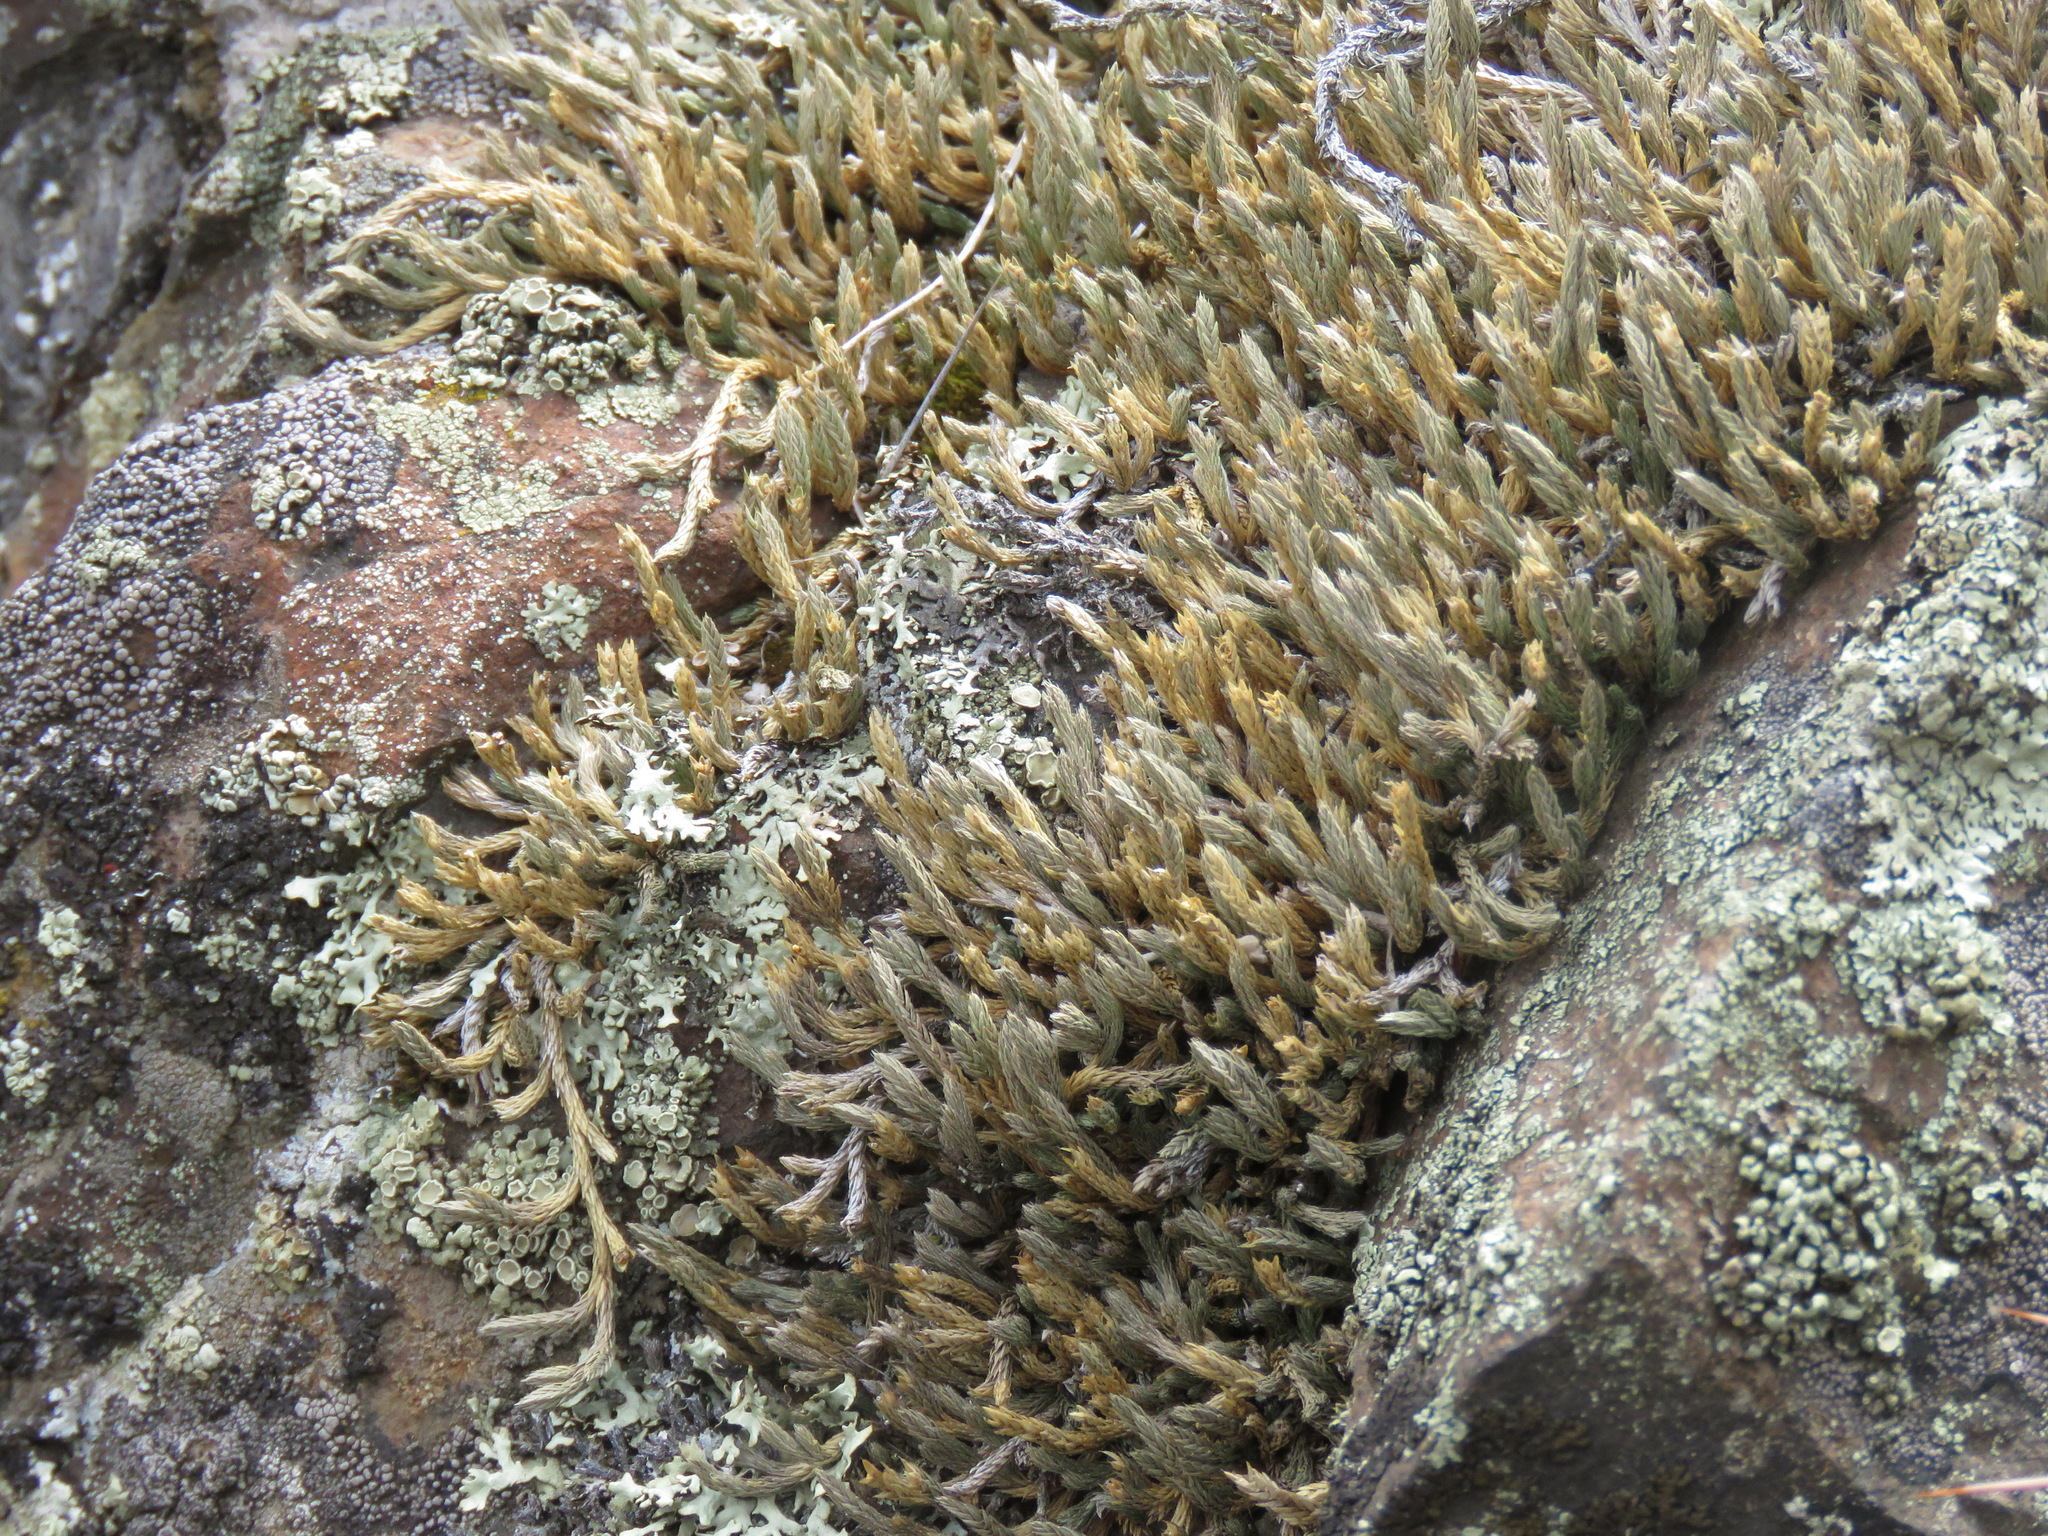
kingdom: Plantae
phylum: Tracheophyta
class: Lycopodiopsida
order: Selaginellales
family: Selaginellaceae
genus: Selaginella
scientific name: Selaginella wallacei
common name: Wallace's selaginella
